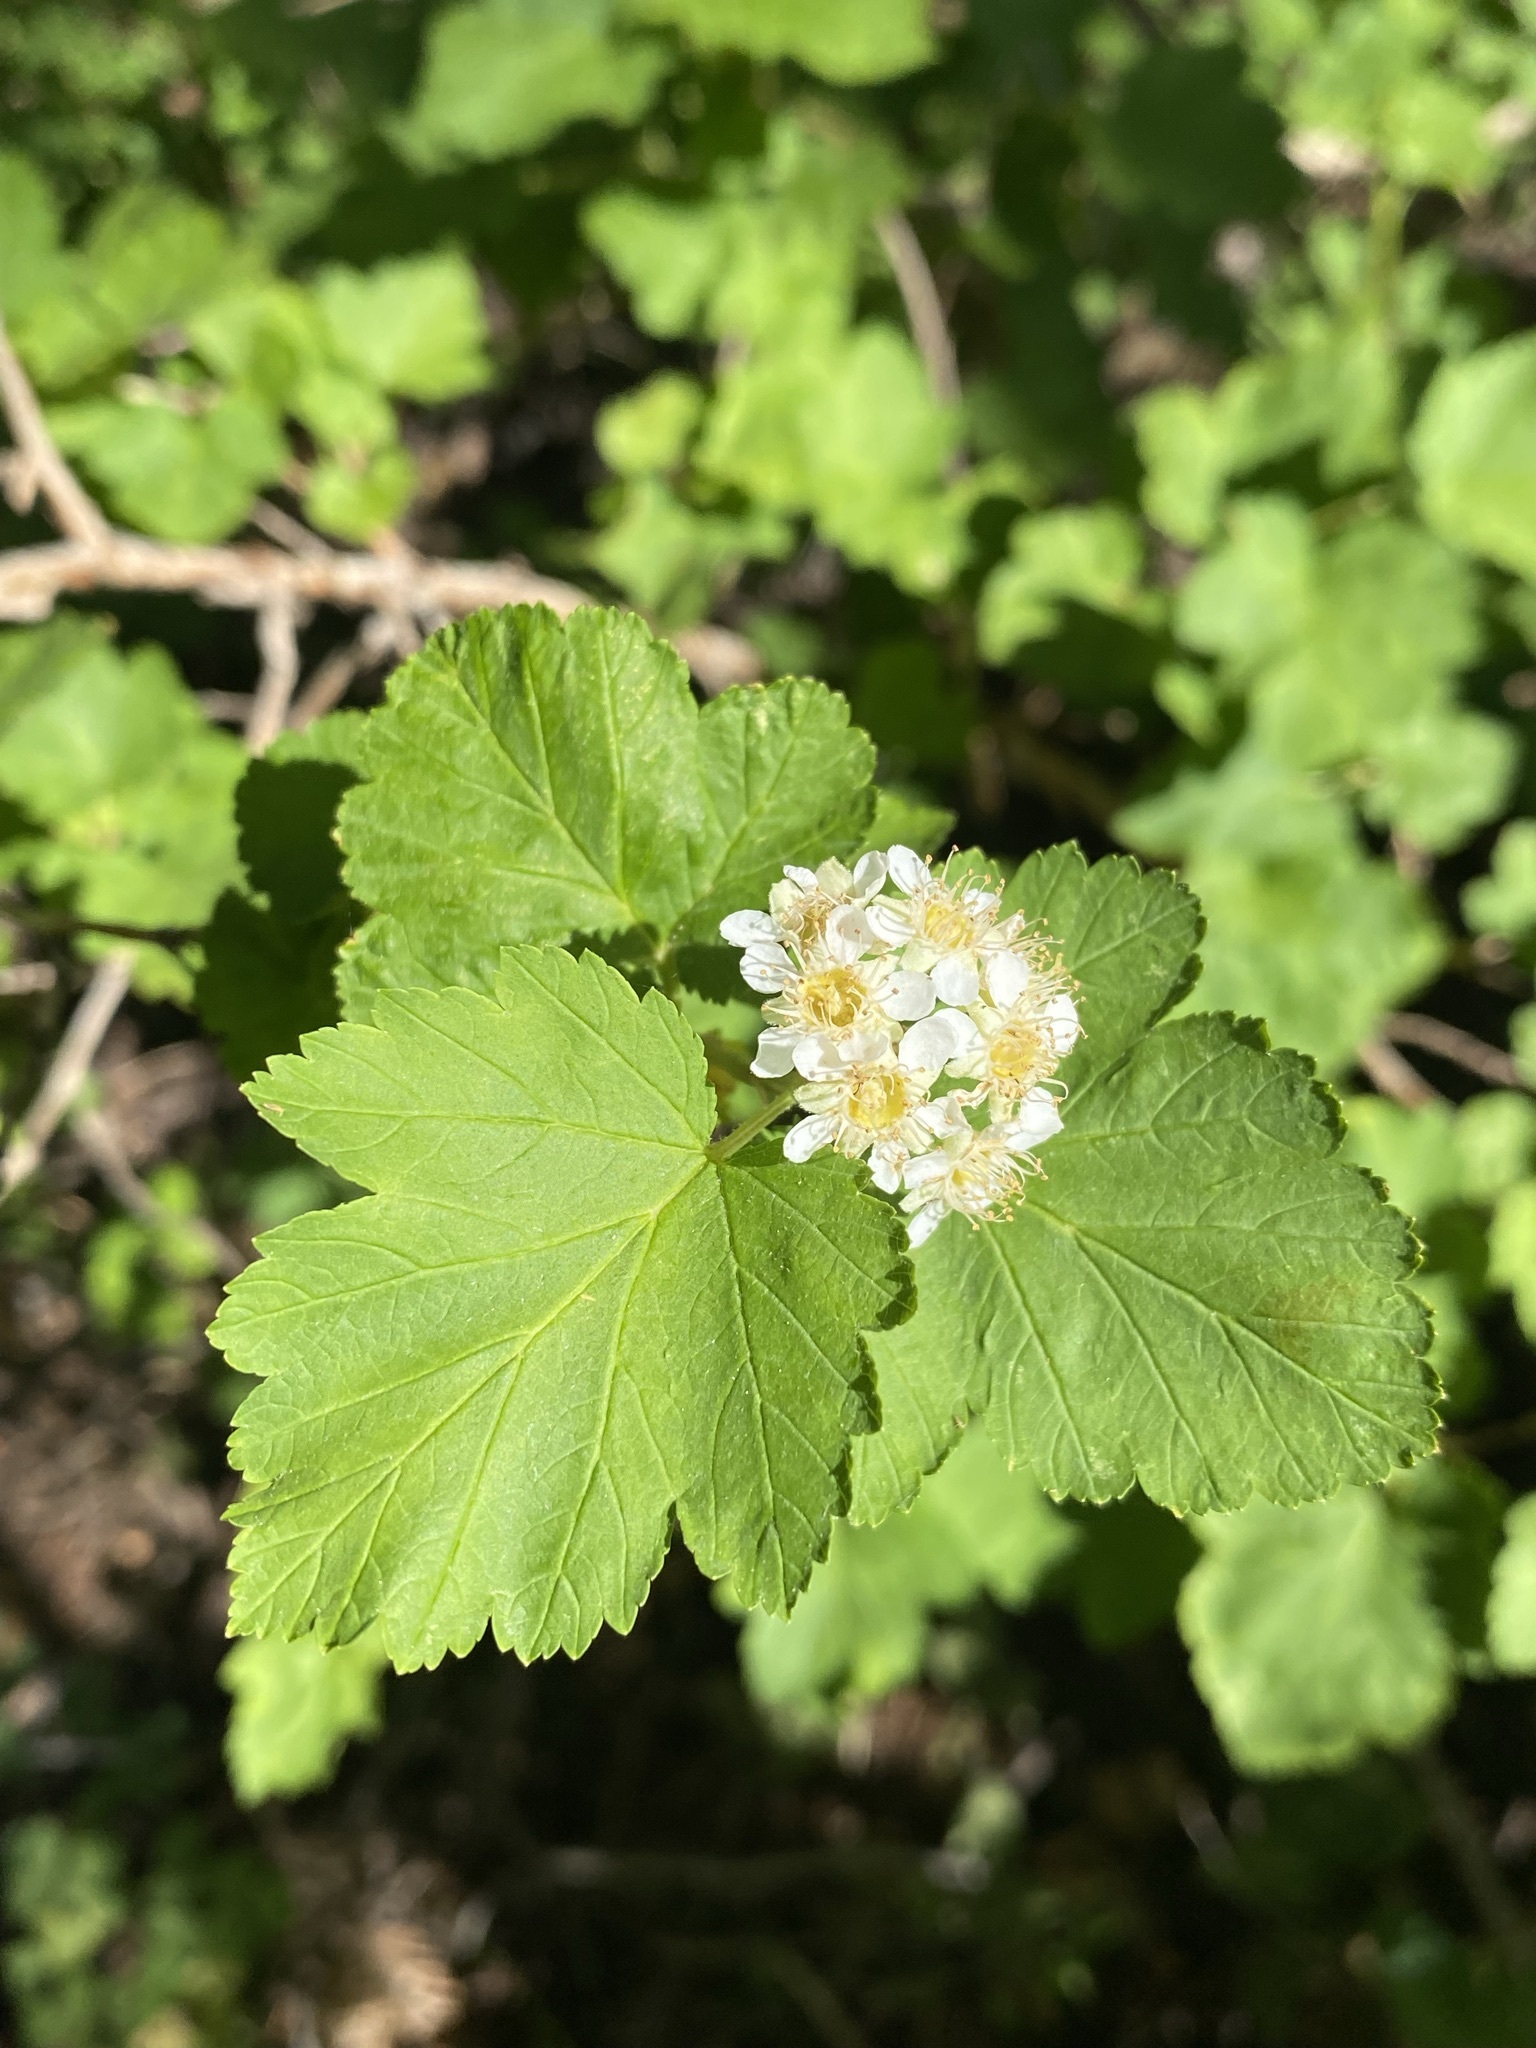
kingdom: Plantae
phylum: Tracheophyta
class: Magnoliopsida
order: Rosales
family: Rosaceae
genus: Physocarpus
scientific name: Physocarpus malvaceus
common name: Mallow ninebark
